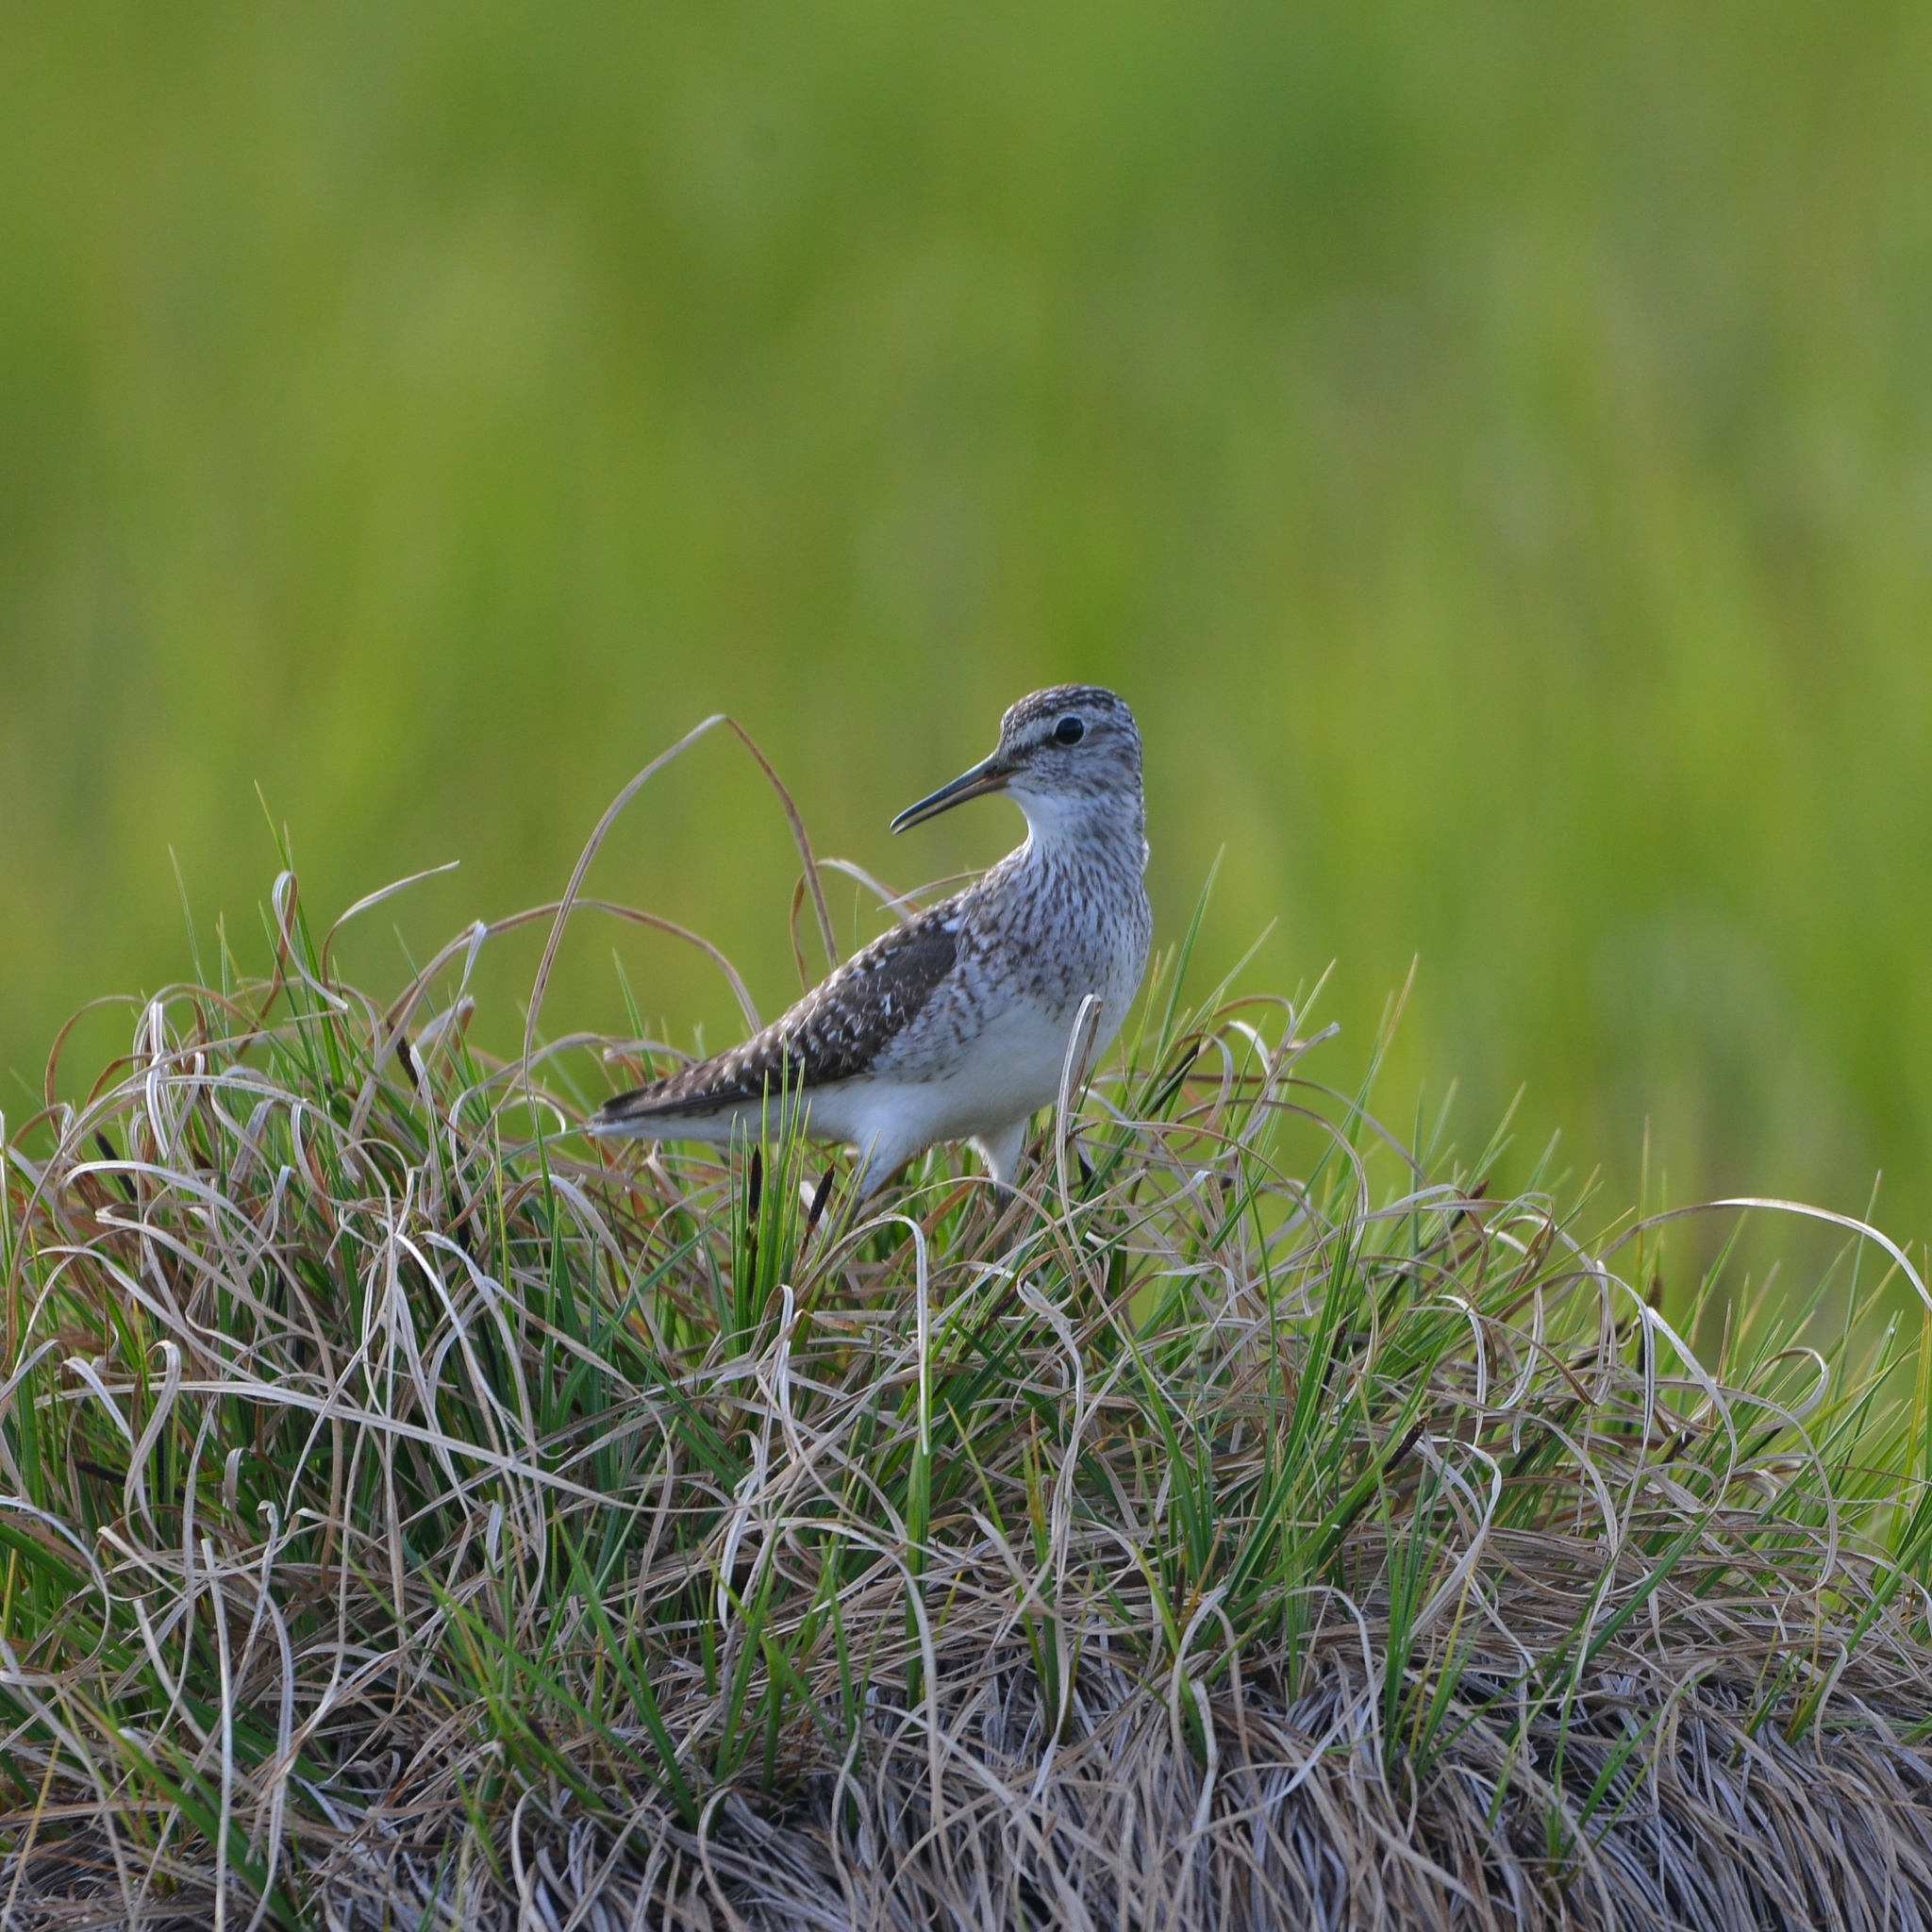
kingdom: Animalia
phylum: Chordata
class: Aves
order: Charadriiformes
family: Scolopacidae
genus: Tringa
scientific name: Tringa glareola
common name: Wood sandpiper
